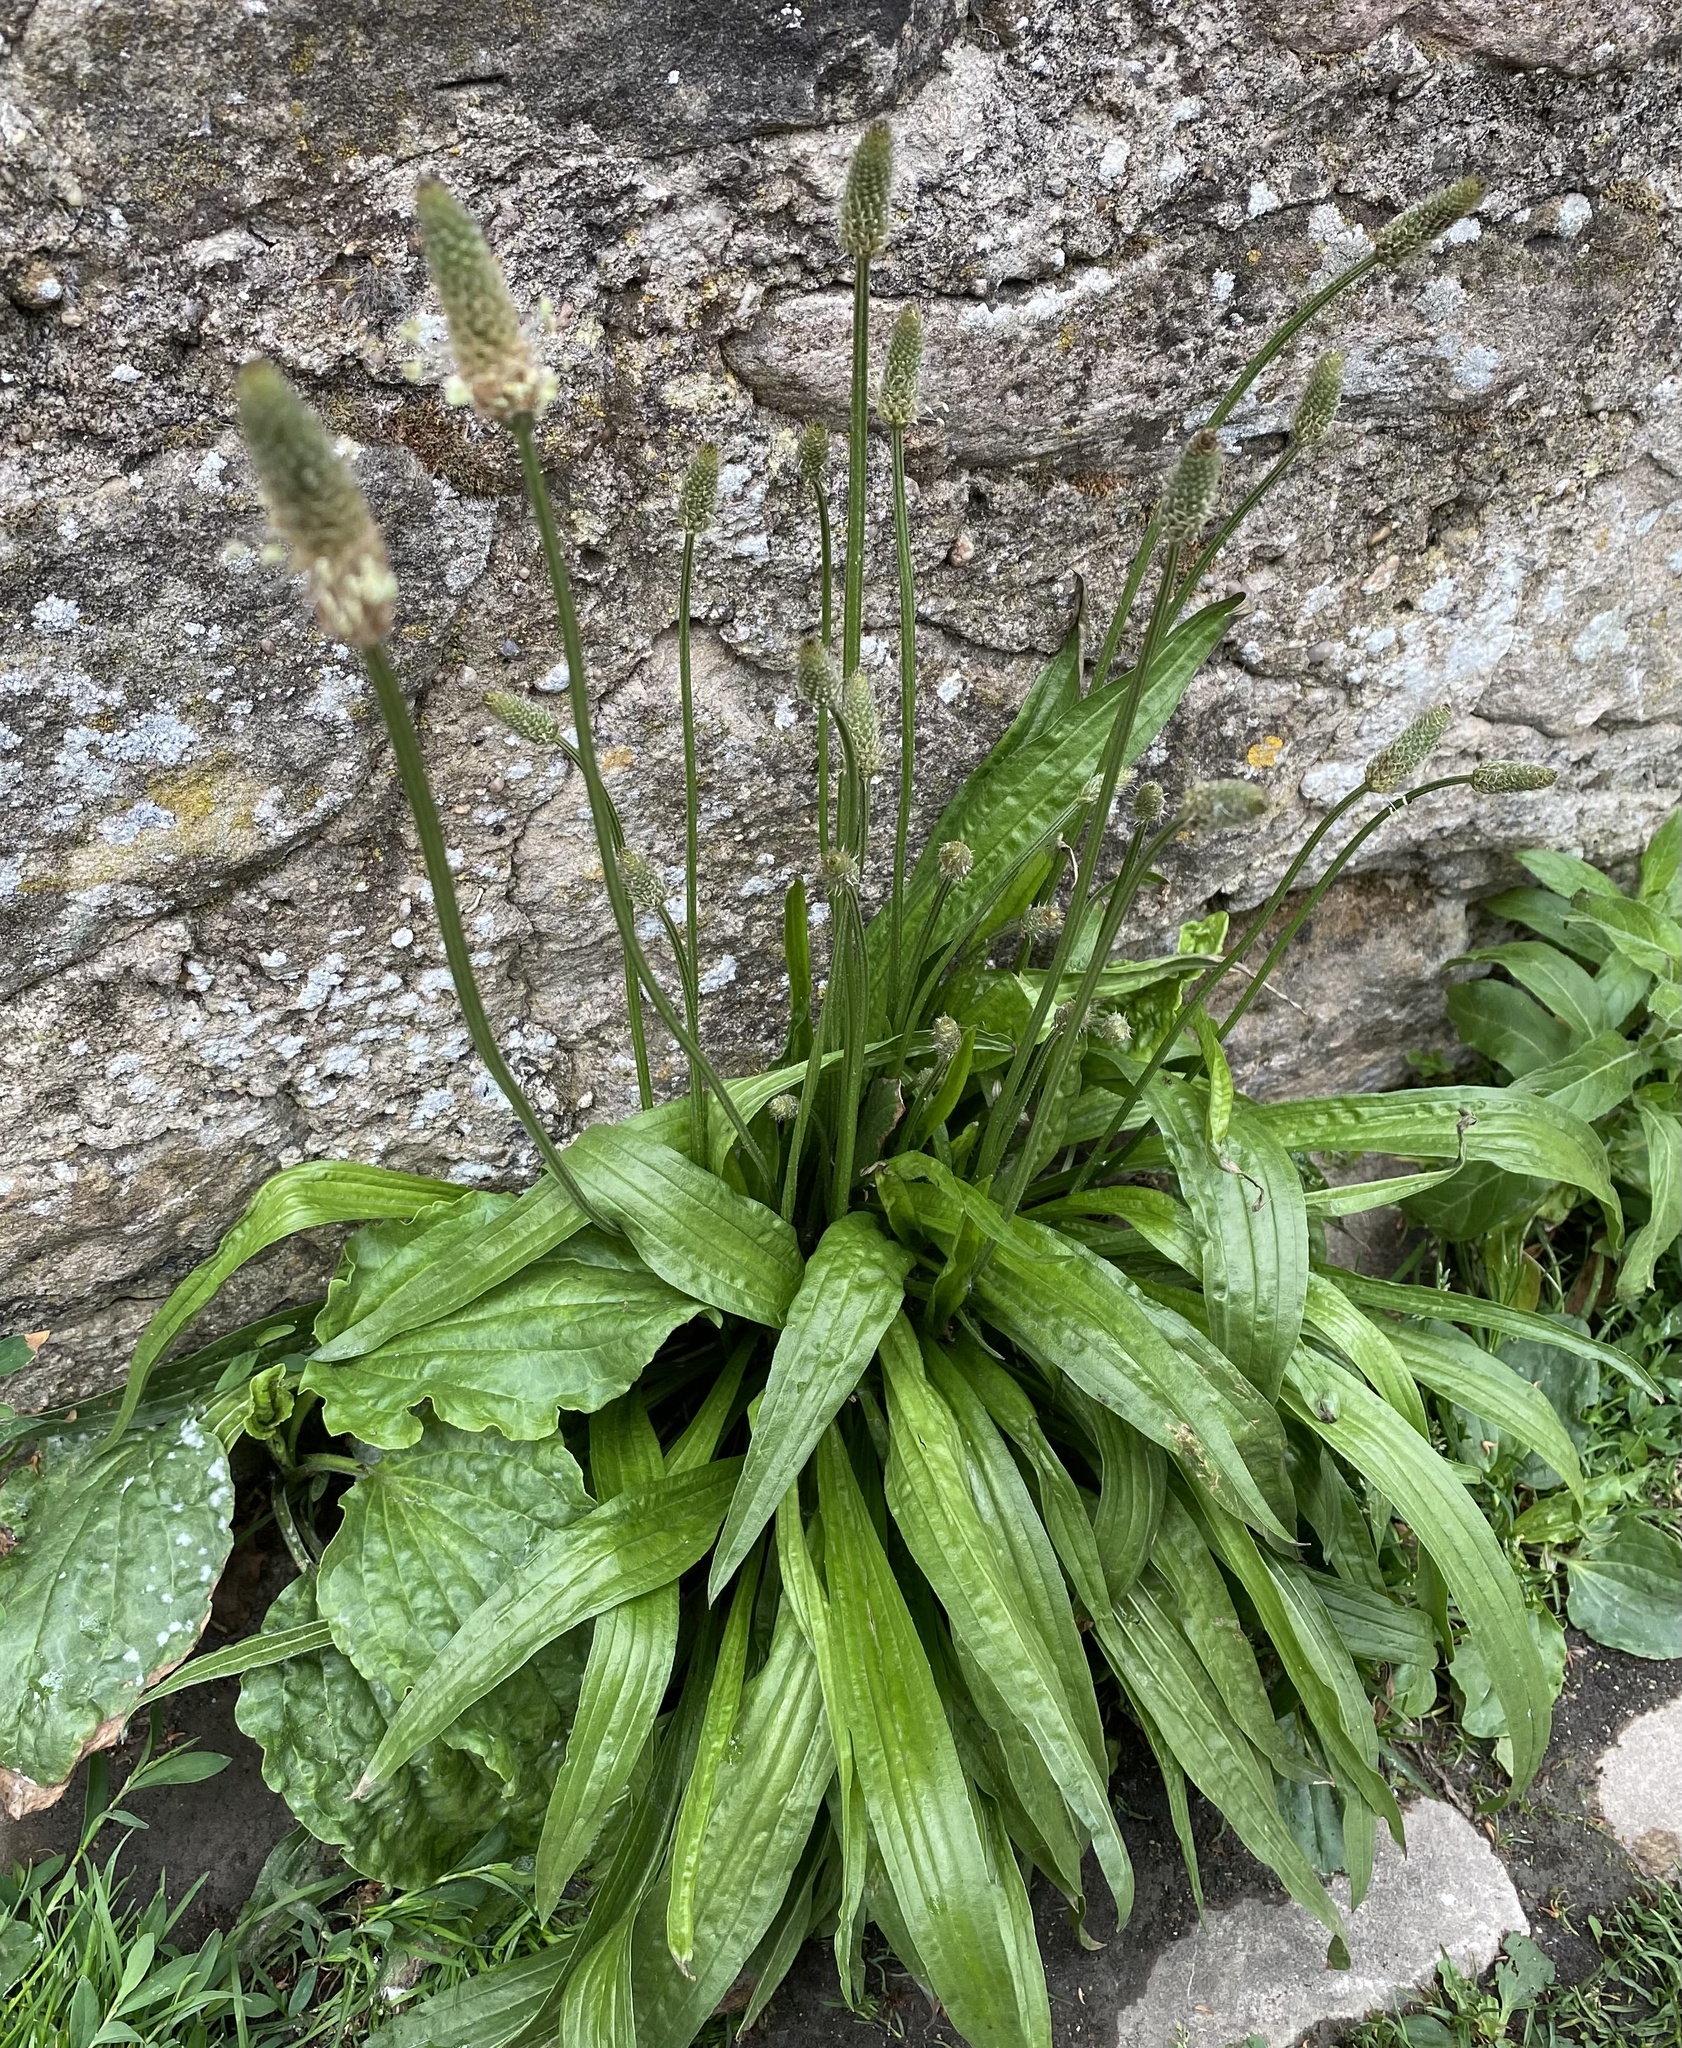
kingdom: Plantae
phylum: Tracheophyta
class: Magnoliopsida
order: Lamiales
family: Plantaginaceae
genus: Plantago
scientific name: Plantago lanceolata
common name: Ribwort plantain
